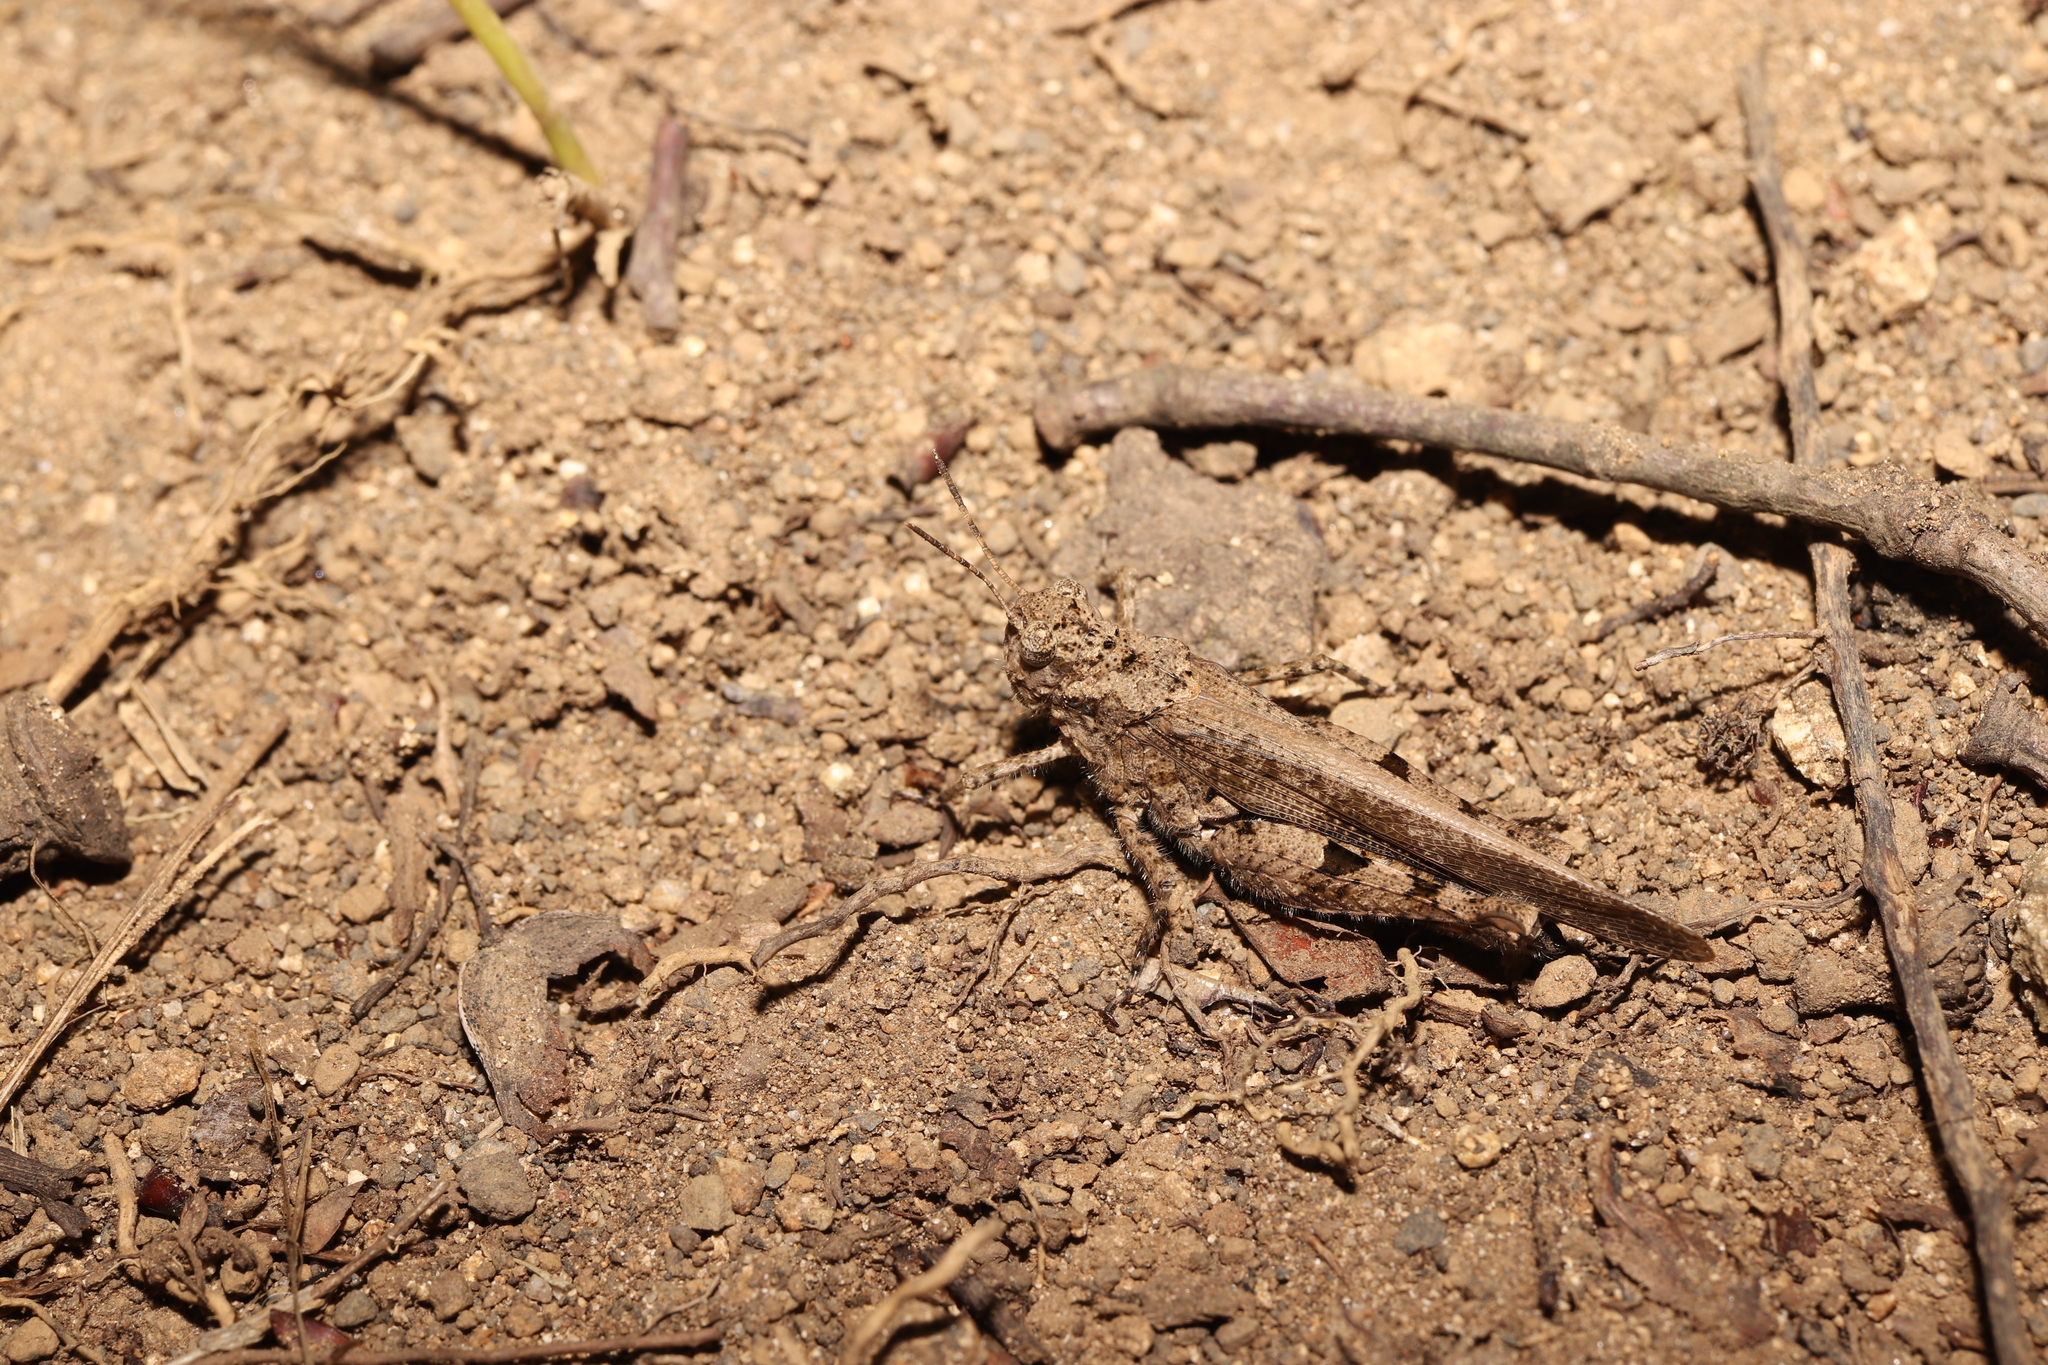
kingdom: Animalia
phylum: Arthropoda
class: Insecta
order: Orthoptera
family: Acrididae
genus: Trilophidia
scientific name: Trilophidia annulata
